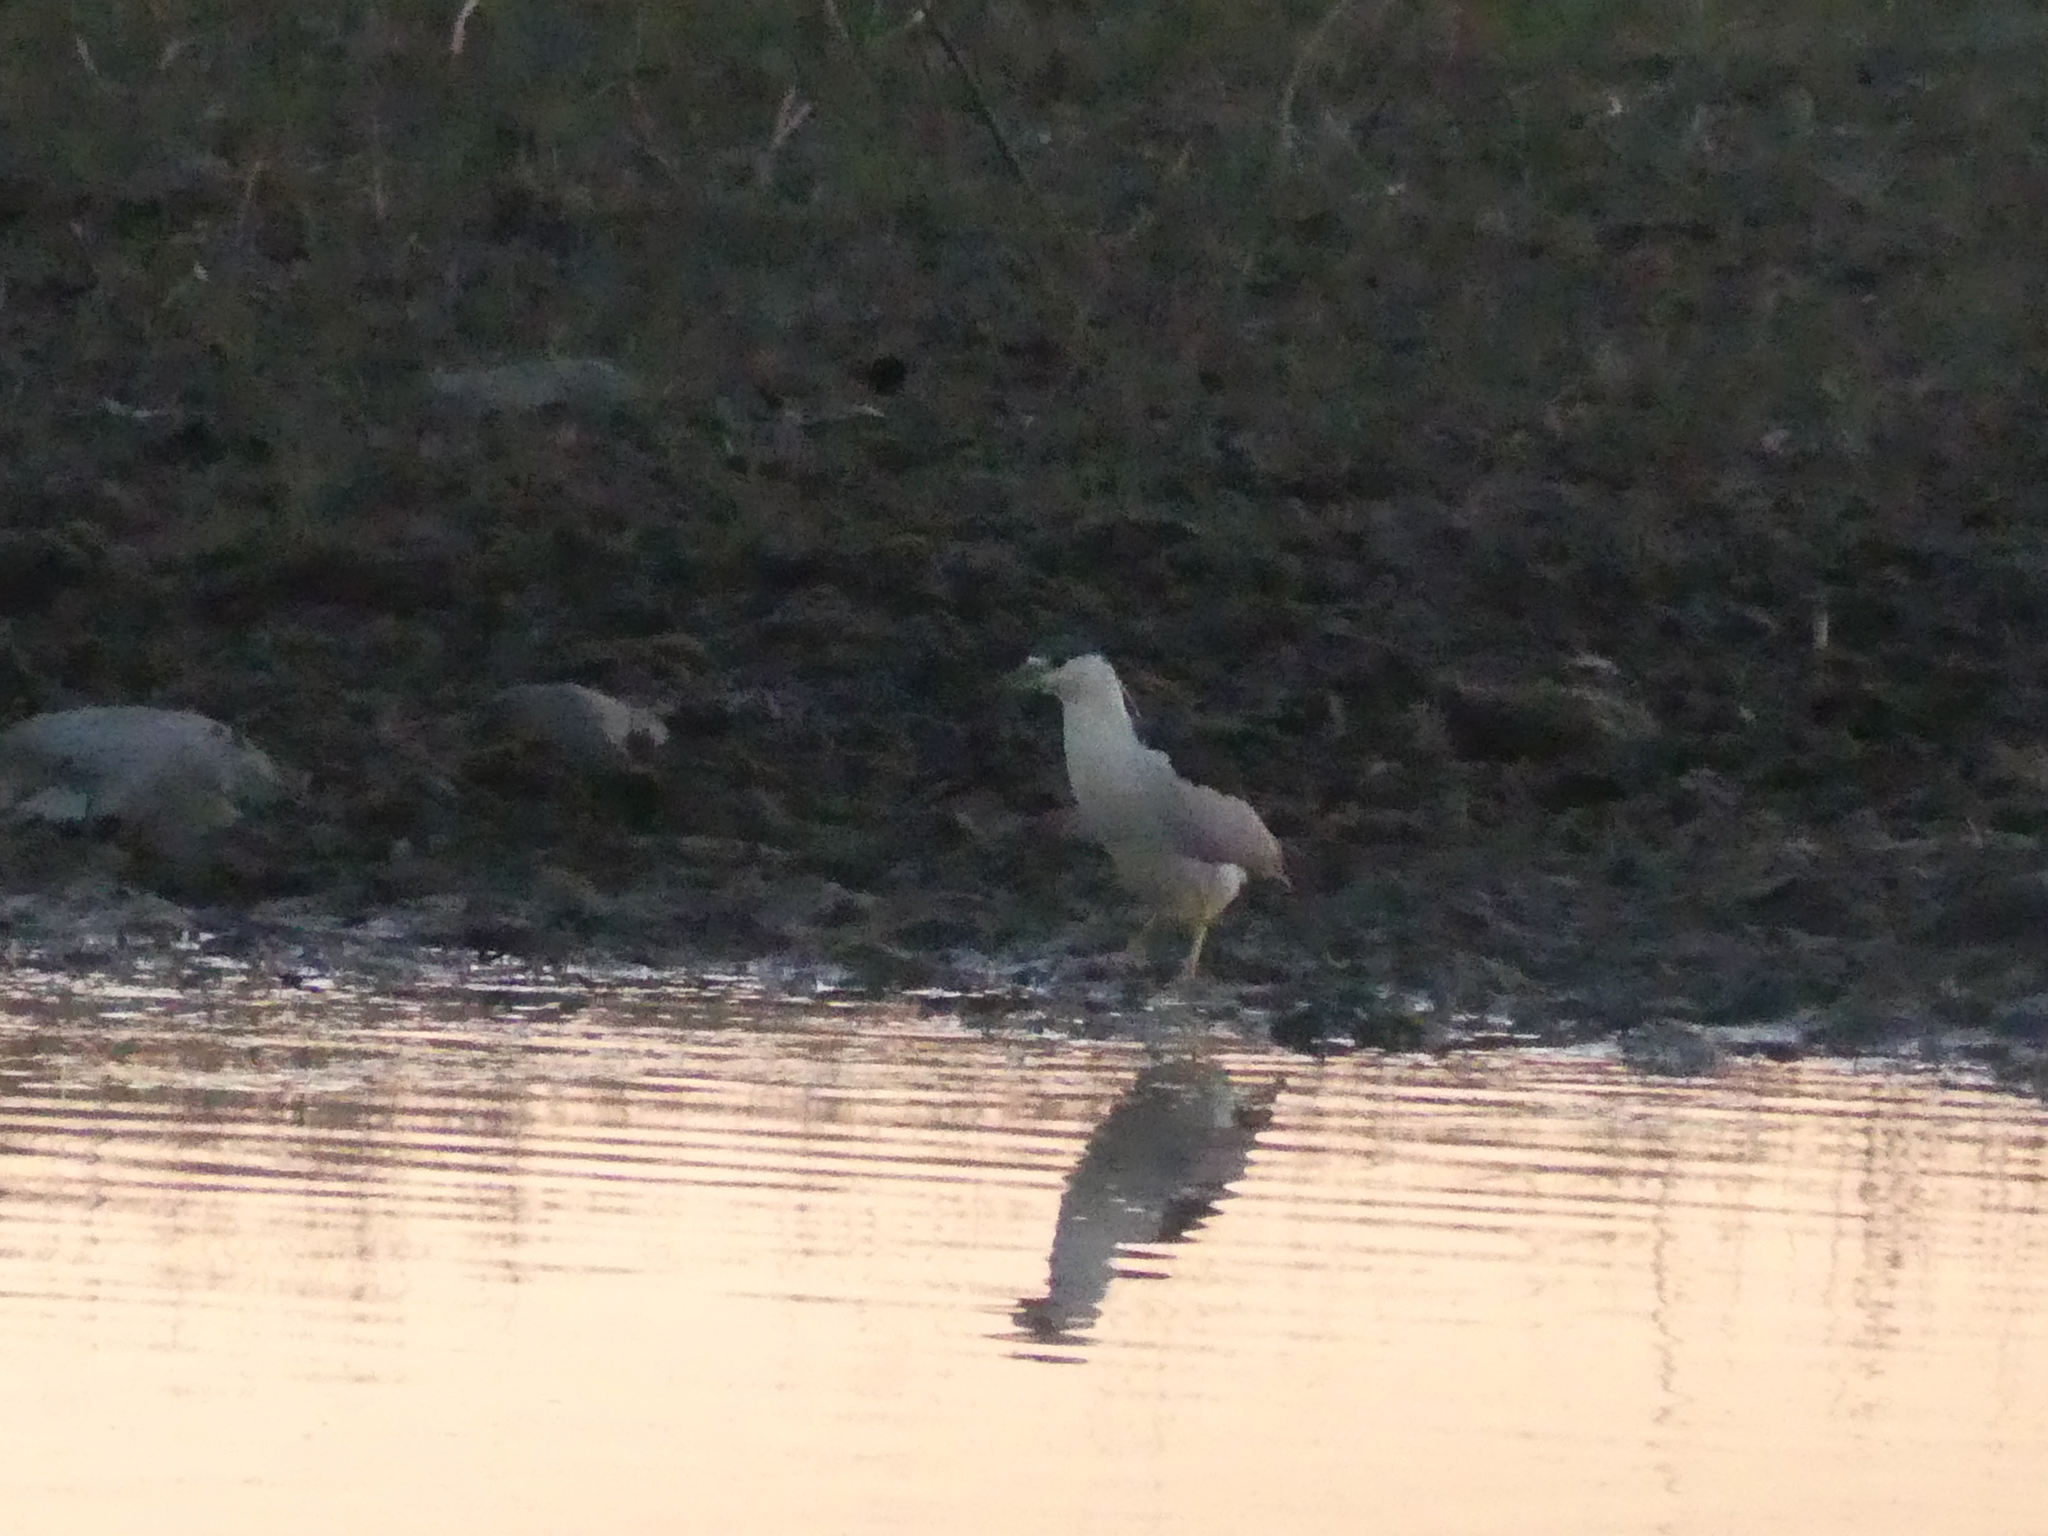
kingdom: Animalia
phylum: Chordata
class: Aves
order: Pelecaniformes
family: Ardeidae
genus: Nycticorax
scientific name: Nycticorax nycticorax
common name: Black-crowned night heron
